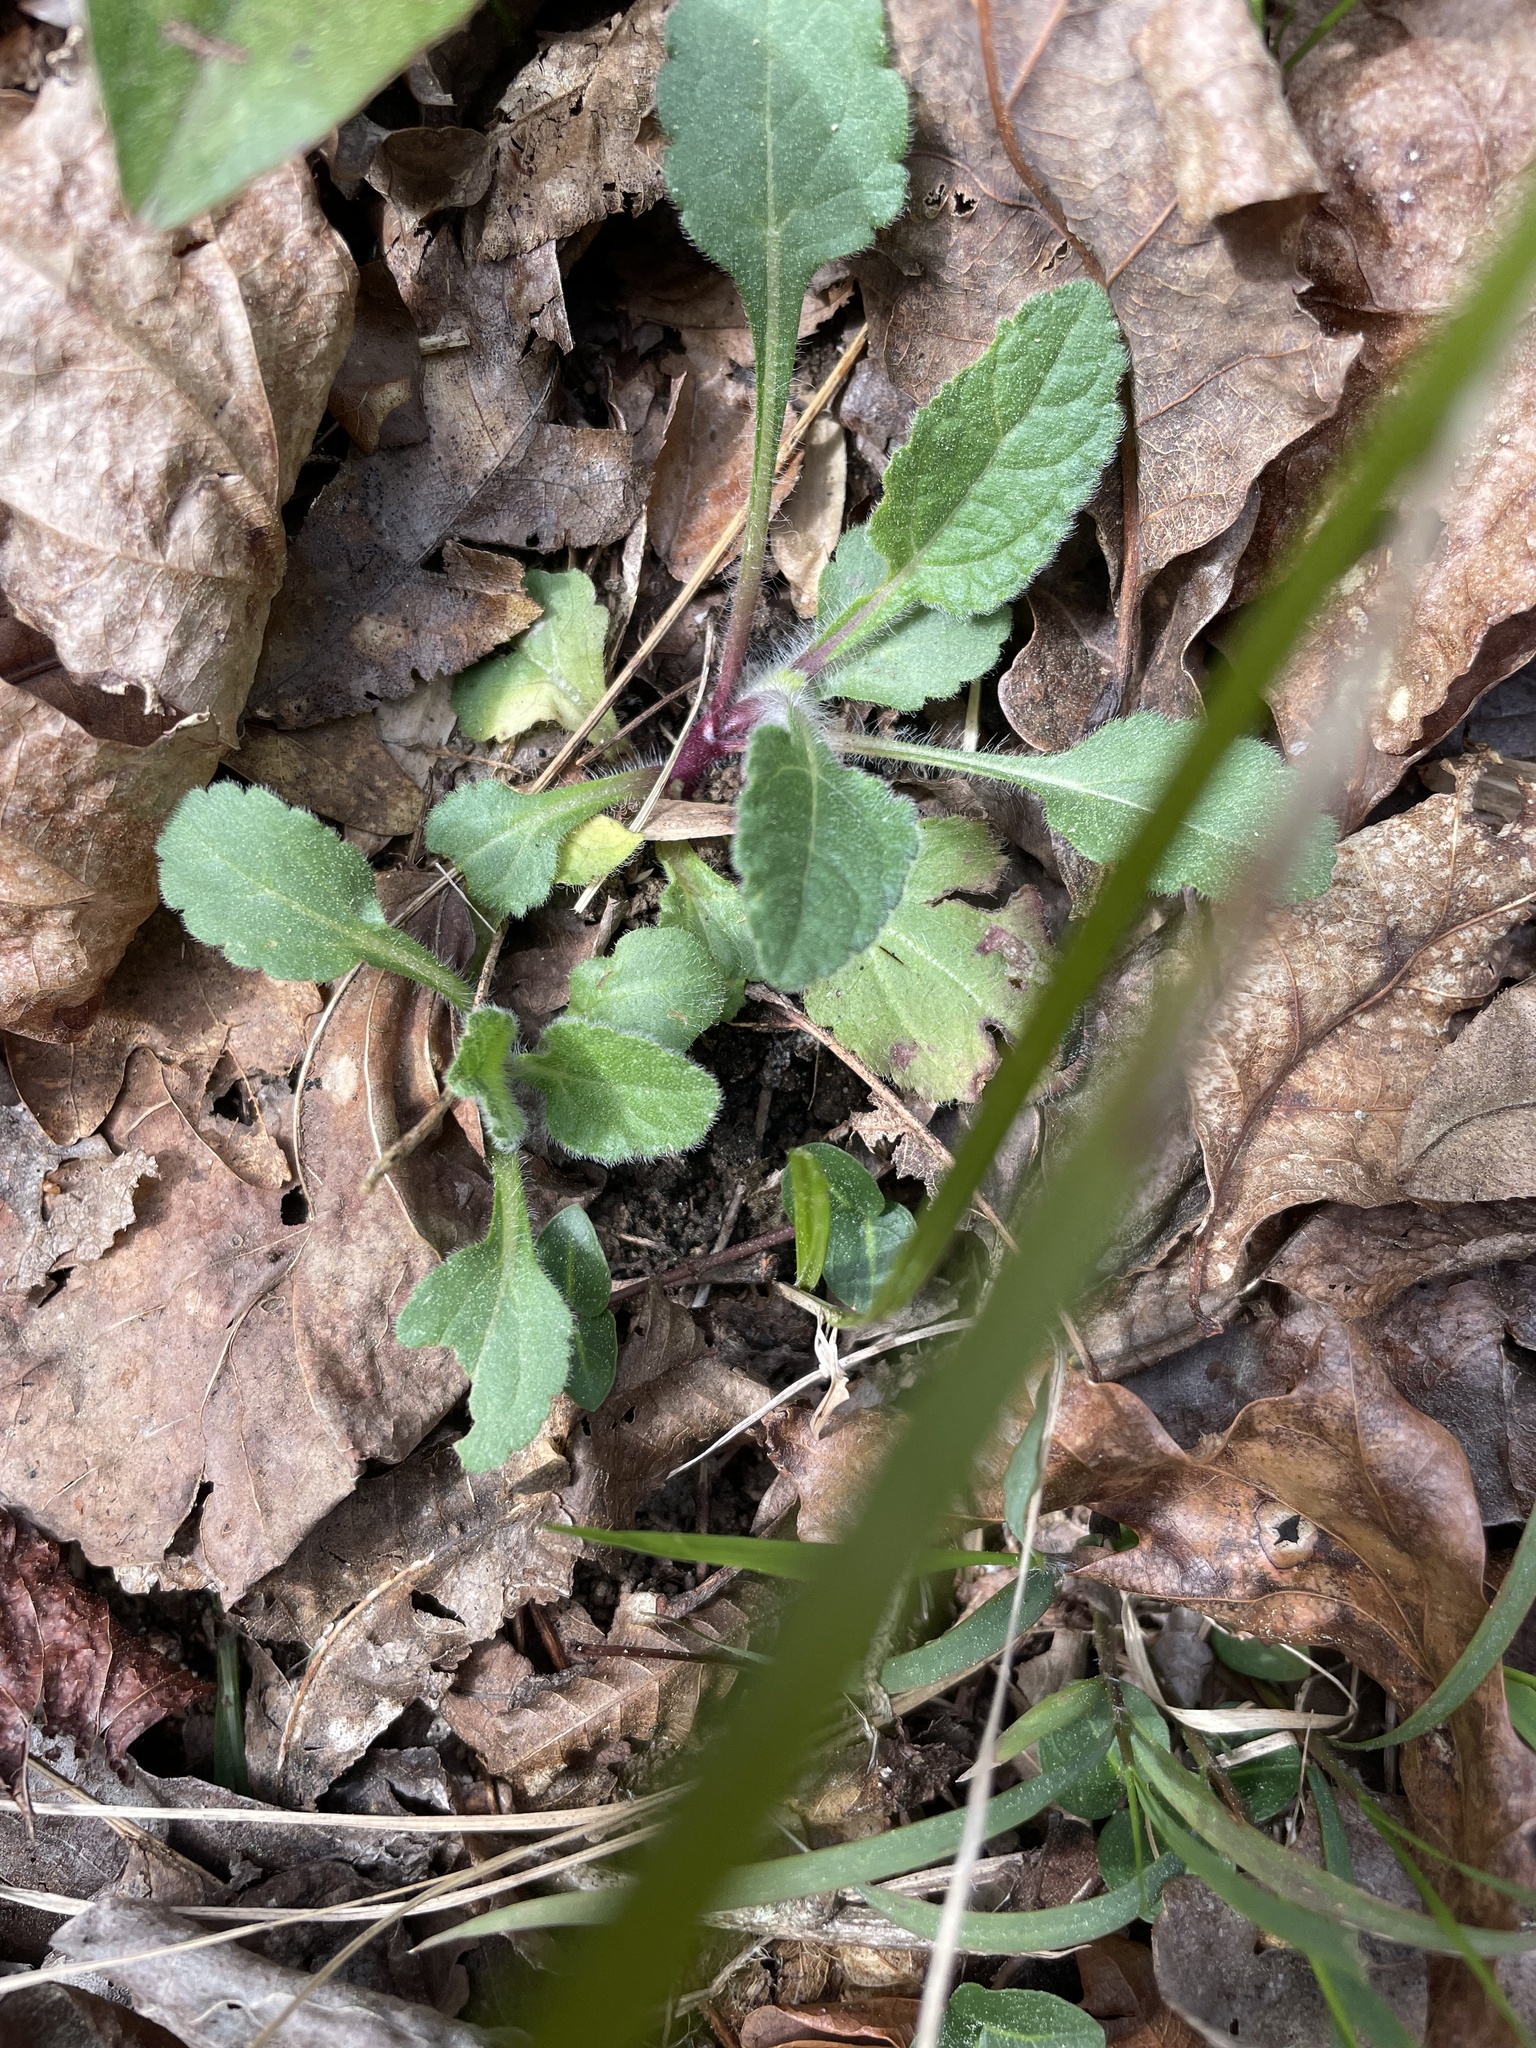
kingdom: Plantae
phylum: Tracheophyta
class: Magnoliopsida
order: Asterales
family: Asteraceae
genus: Chrysogonum
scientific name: Chrysogonum virginianum
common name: Golden-knee
